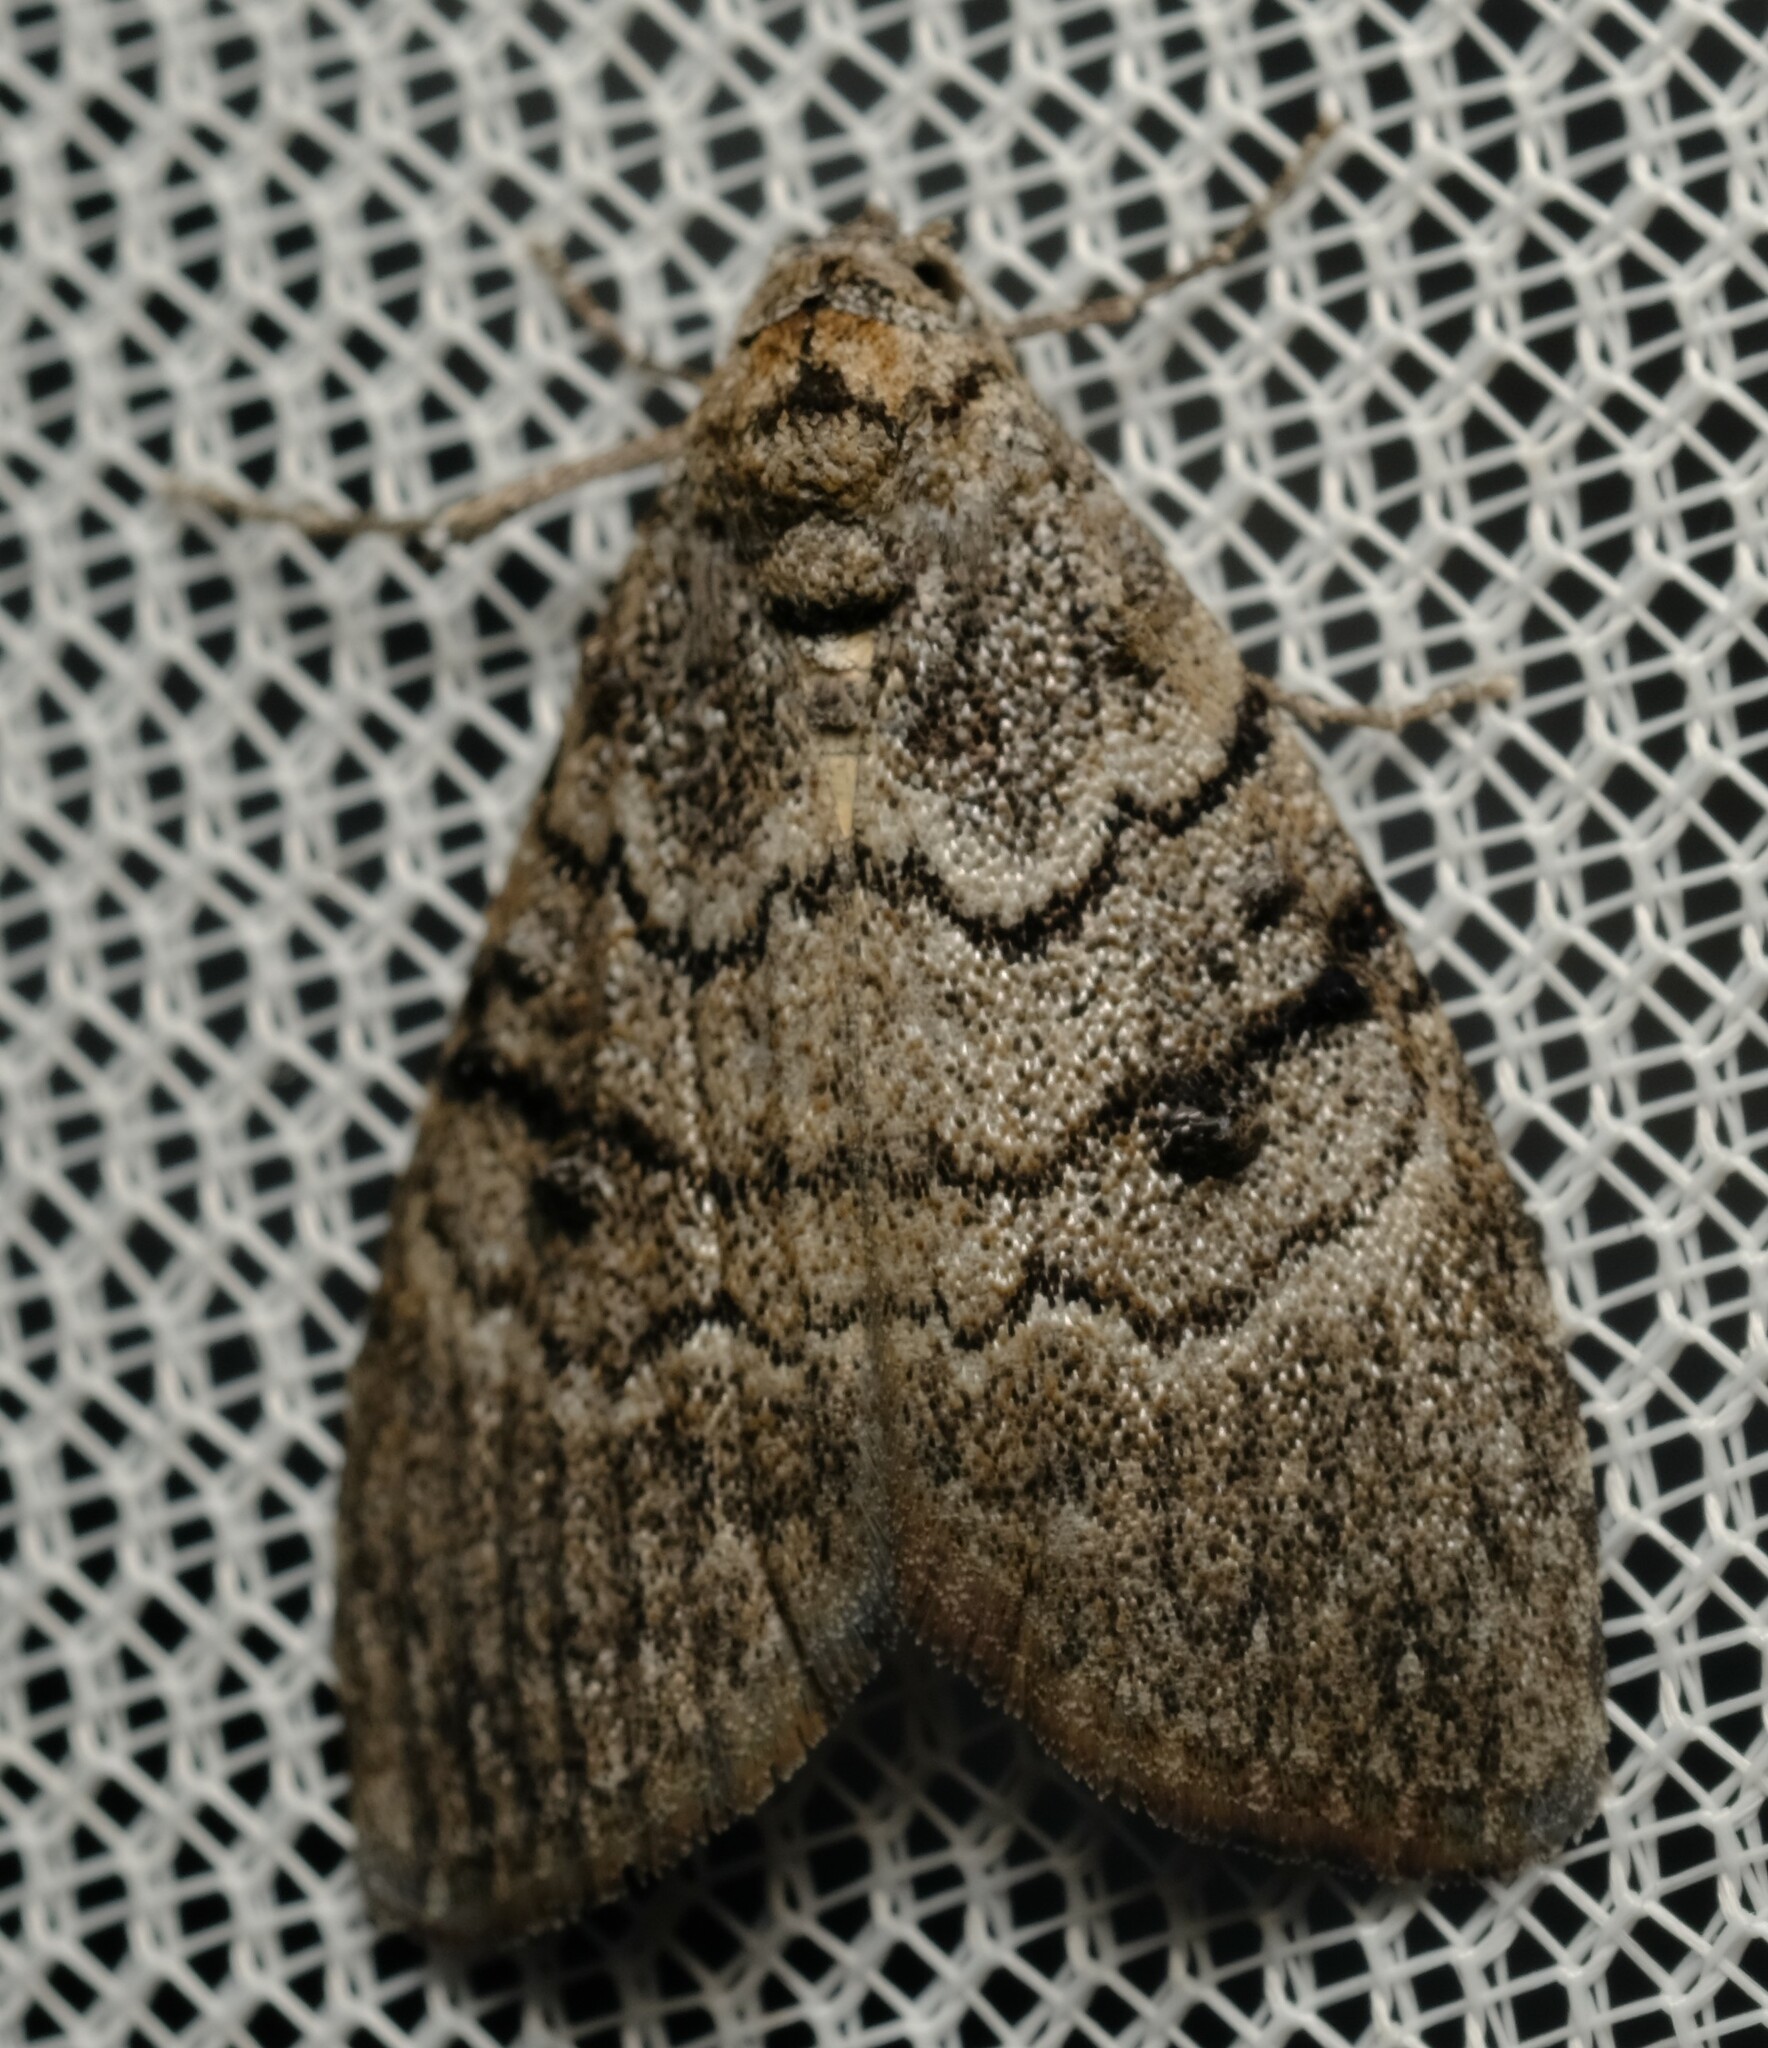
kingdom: Animalia
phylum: Arthropoda
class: Insecta
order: Lepidoptera
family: Nolidae
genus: Uraba
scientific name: Uraba lugens
